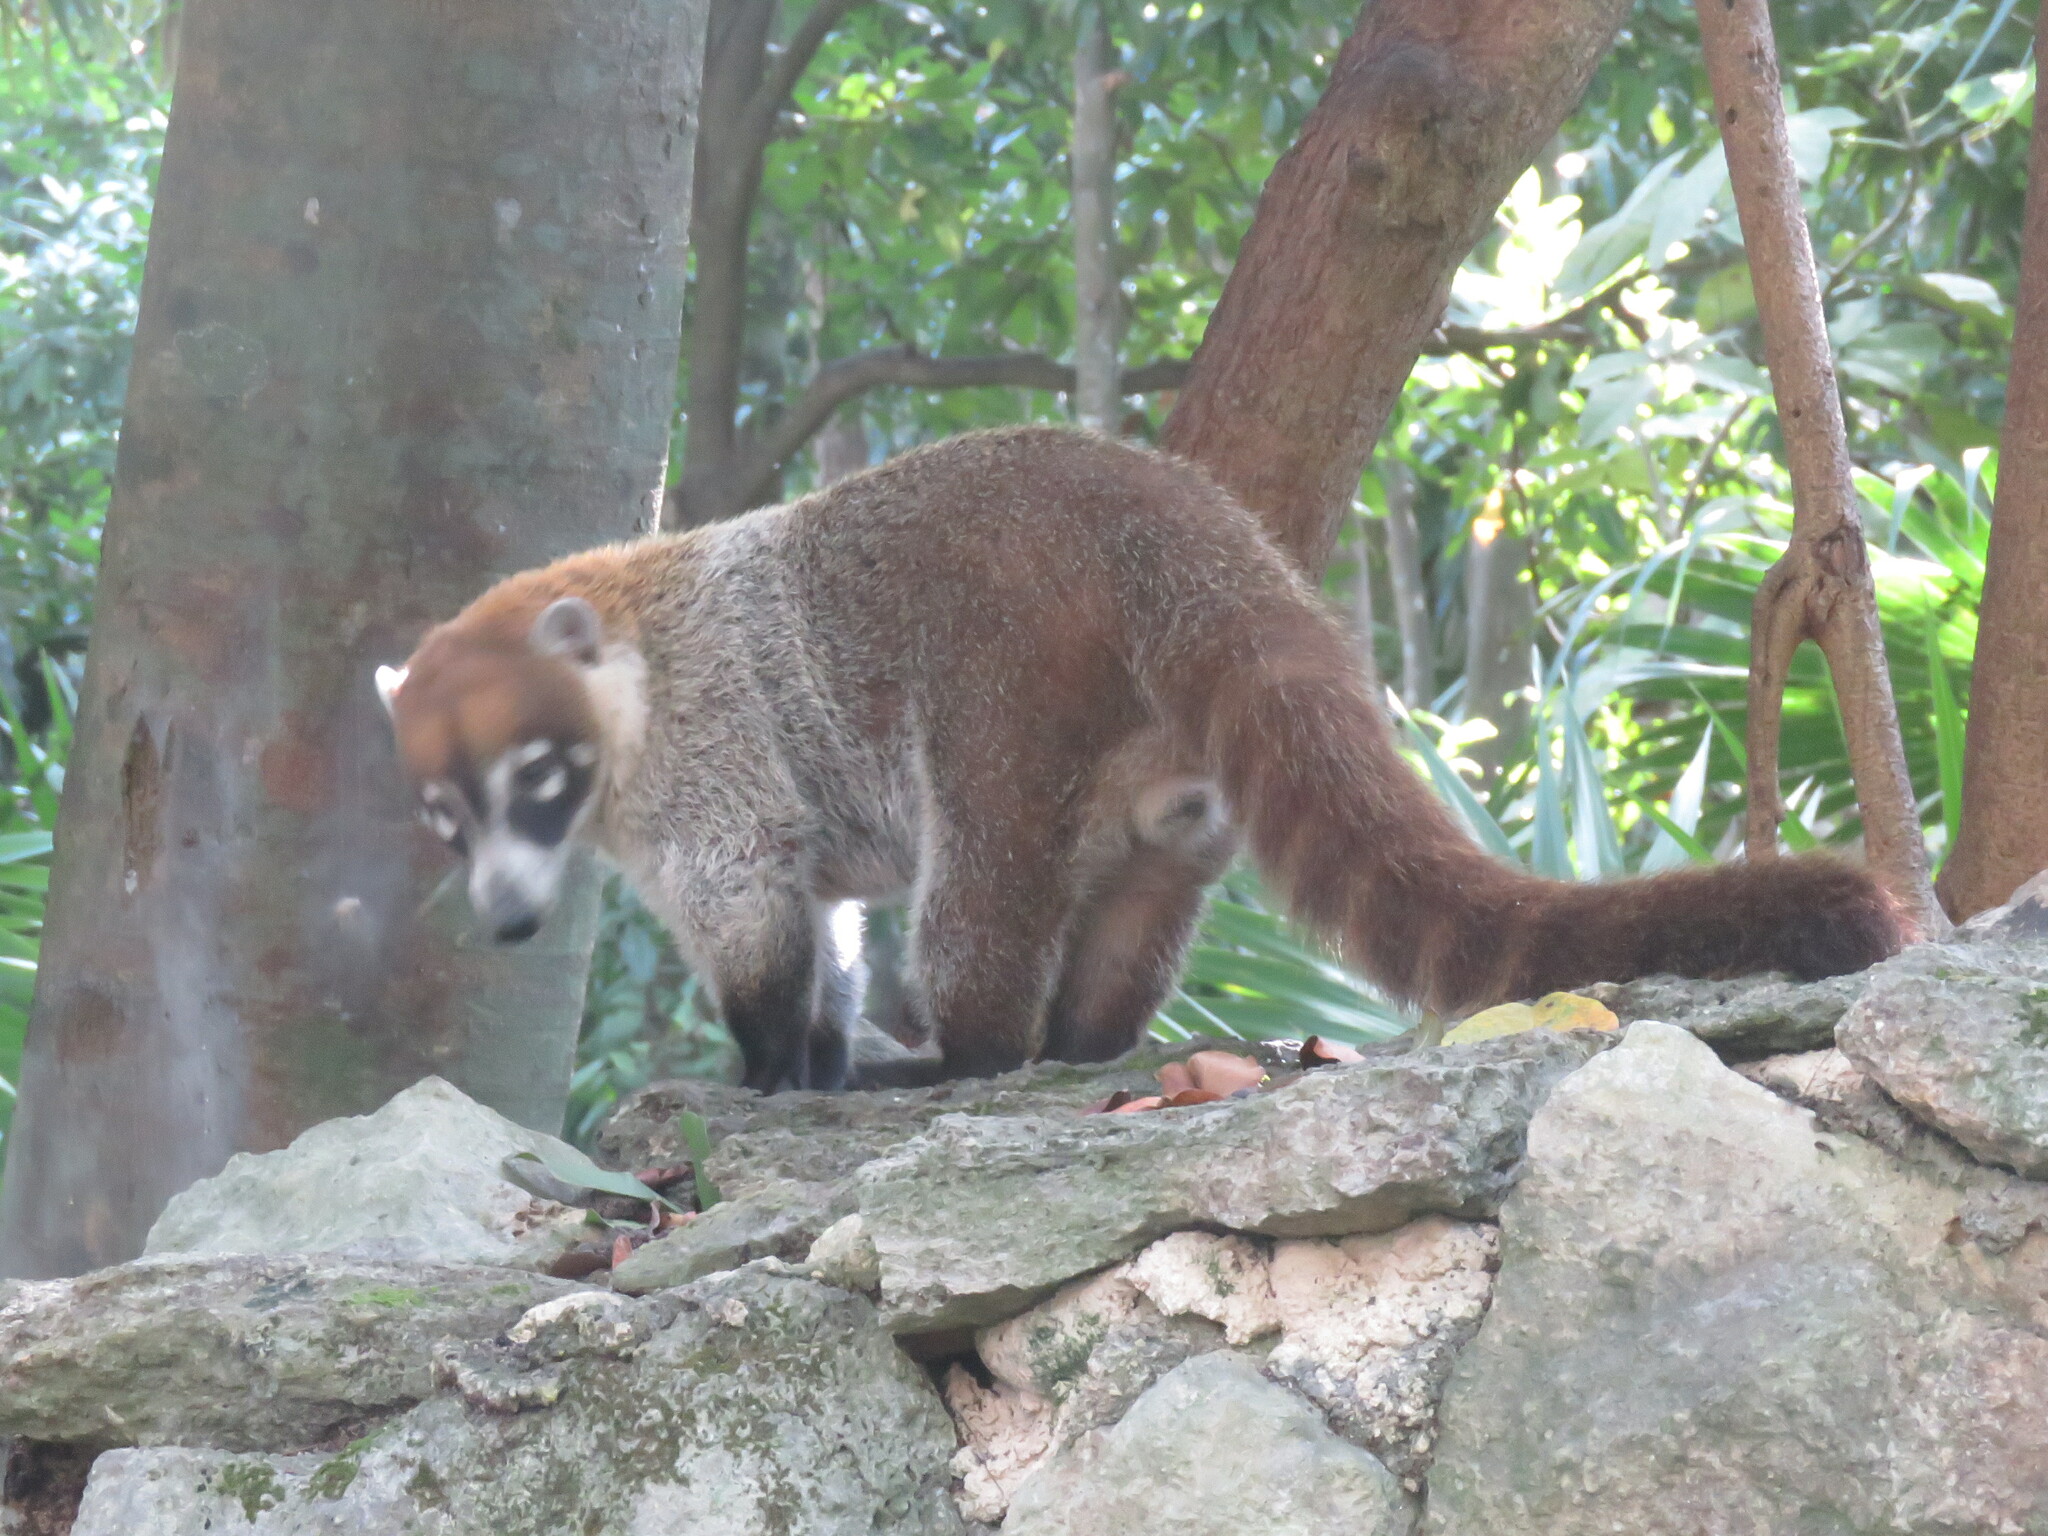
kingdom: Animalia
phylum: Chordata
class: Mammalia
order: Carnivora
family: Procyonidae
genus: Nasua
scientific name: Nasua narica
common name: White-nosed coati
